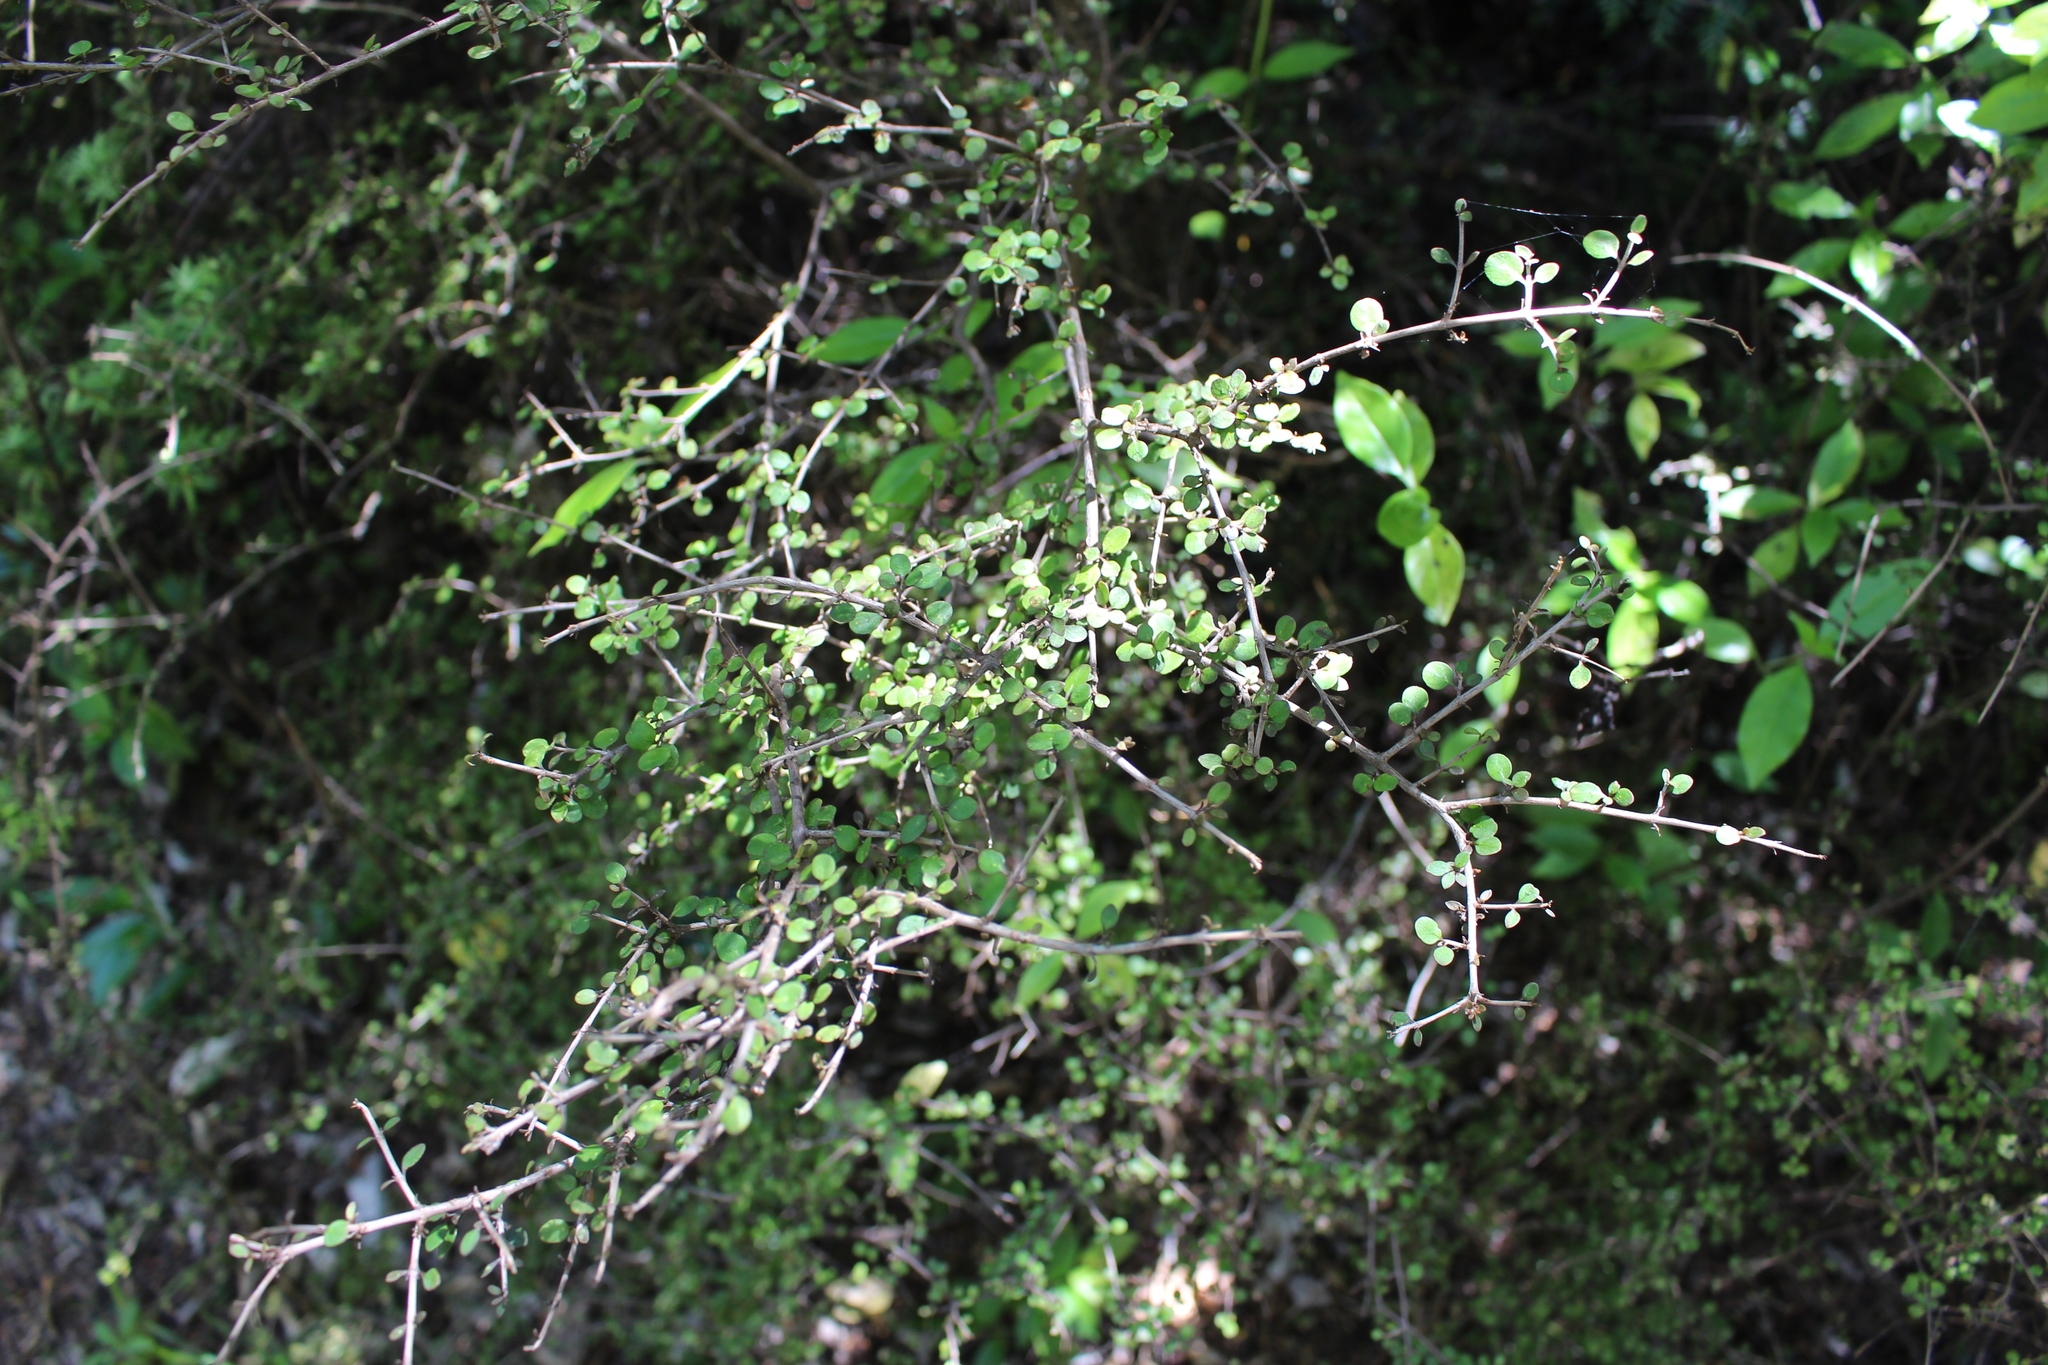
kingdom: Plantae
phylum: Tracheophyta
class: Magnoliopsida
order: Gentianales
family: Rubiaceae
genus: Coprosma
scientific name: Coprosma rhamnoides
